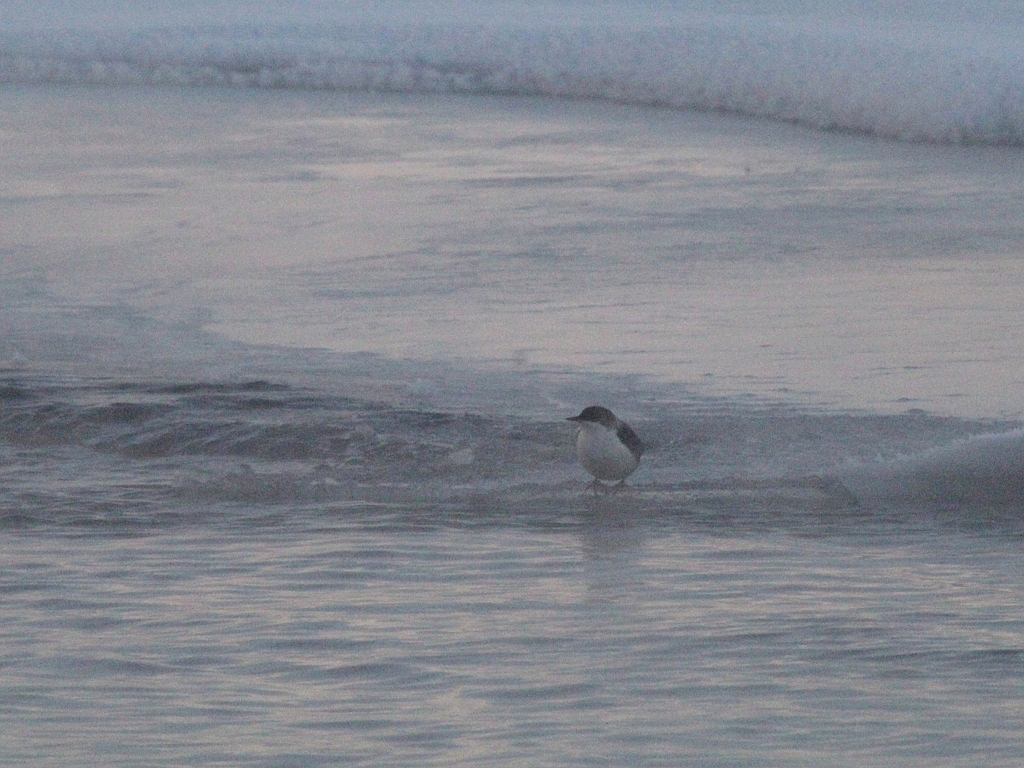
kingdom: Animalia
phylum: Chordata
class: Aves
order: Passeriformes
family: Cinclidae
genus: Cinclus
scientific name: Cinclus cinclus
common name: White-throated dipper
